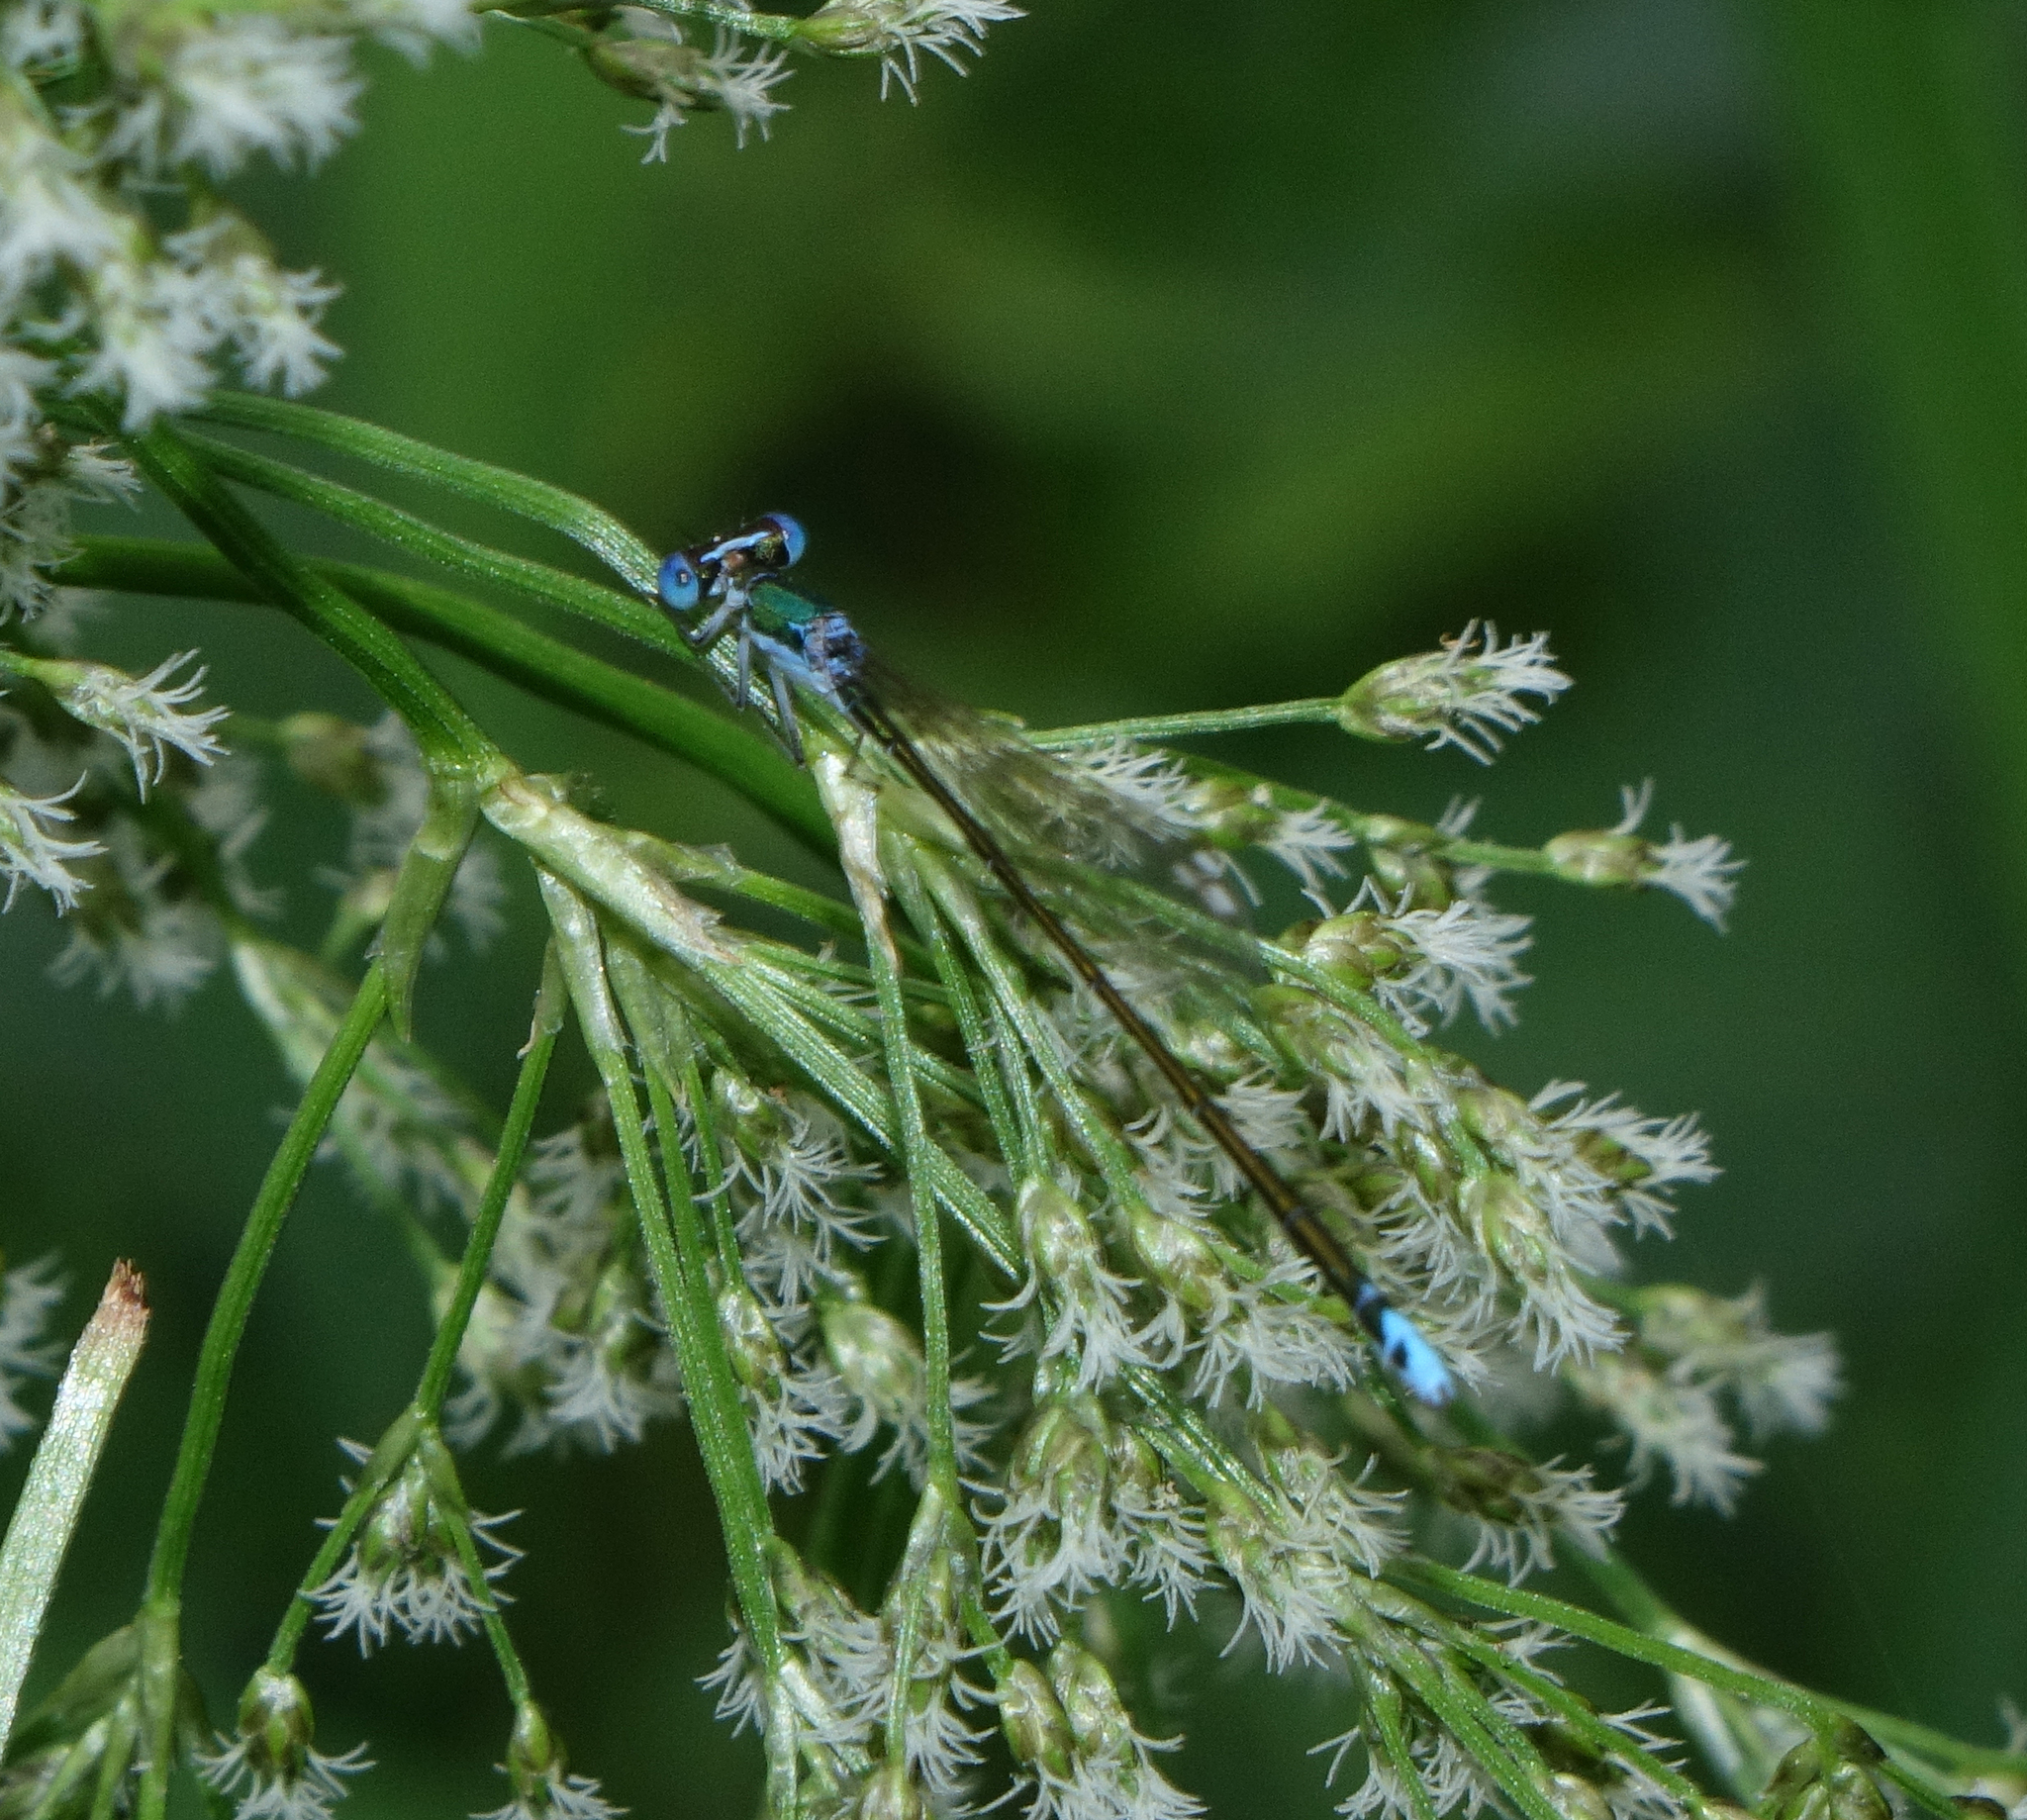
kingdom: Animalia
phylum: Arthropoda
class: Insecta
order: Odonata
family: Coenagrionidae
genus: Nehalennia
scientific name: Nehalennia speciosa
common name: Sedgling
